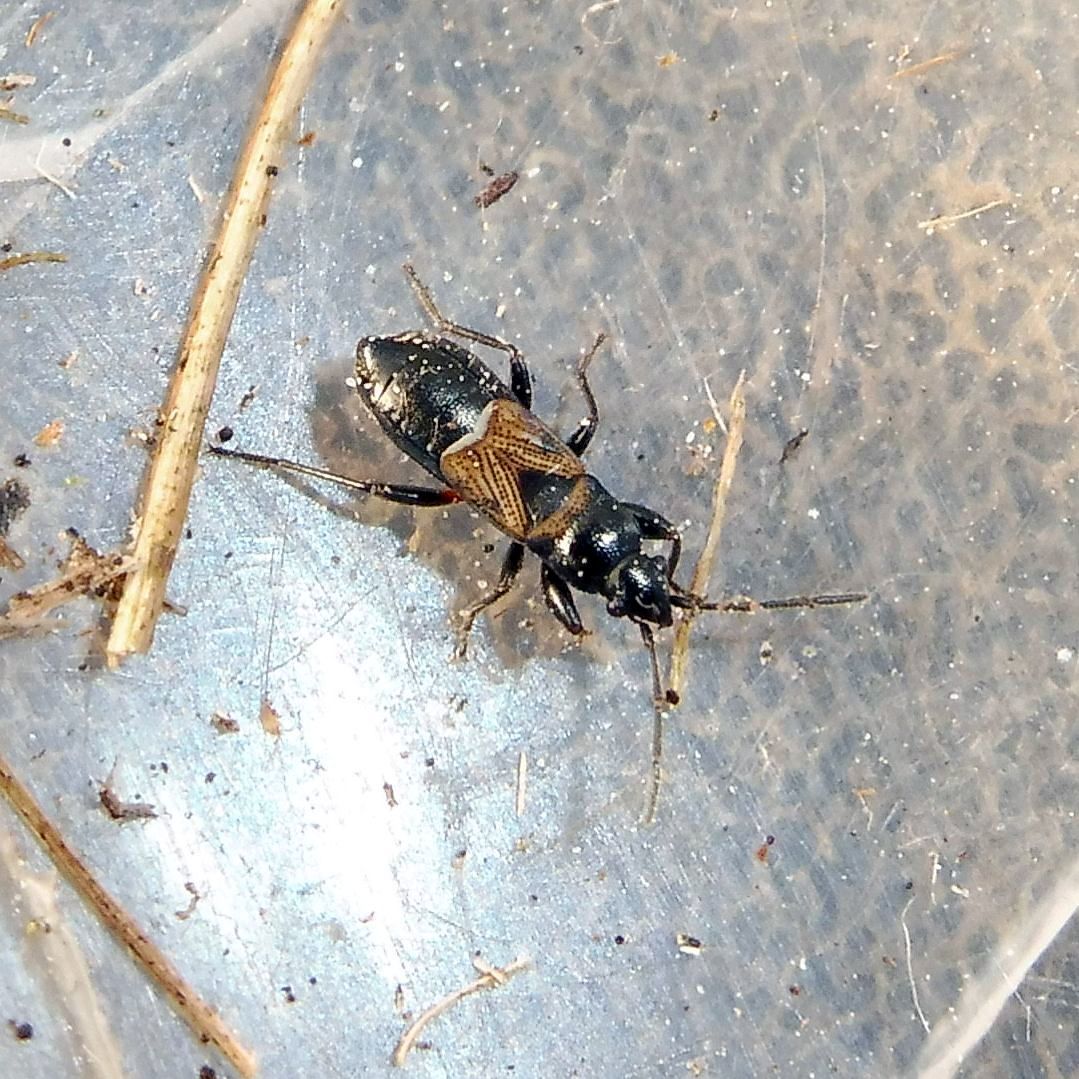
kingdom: Animalia
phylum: Arthropoda
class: Insecta
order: Hemiptera
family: Rhyparochromidae
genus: Macrodema
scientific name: Macrodema microptera
